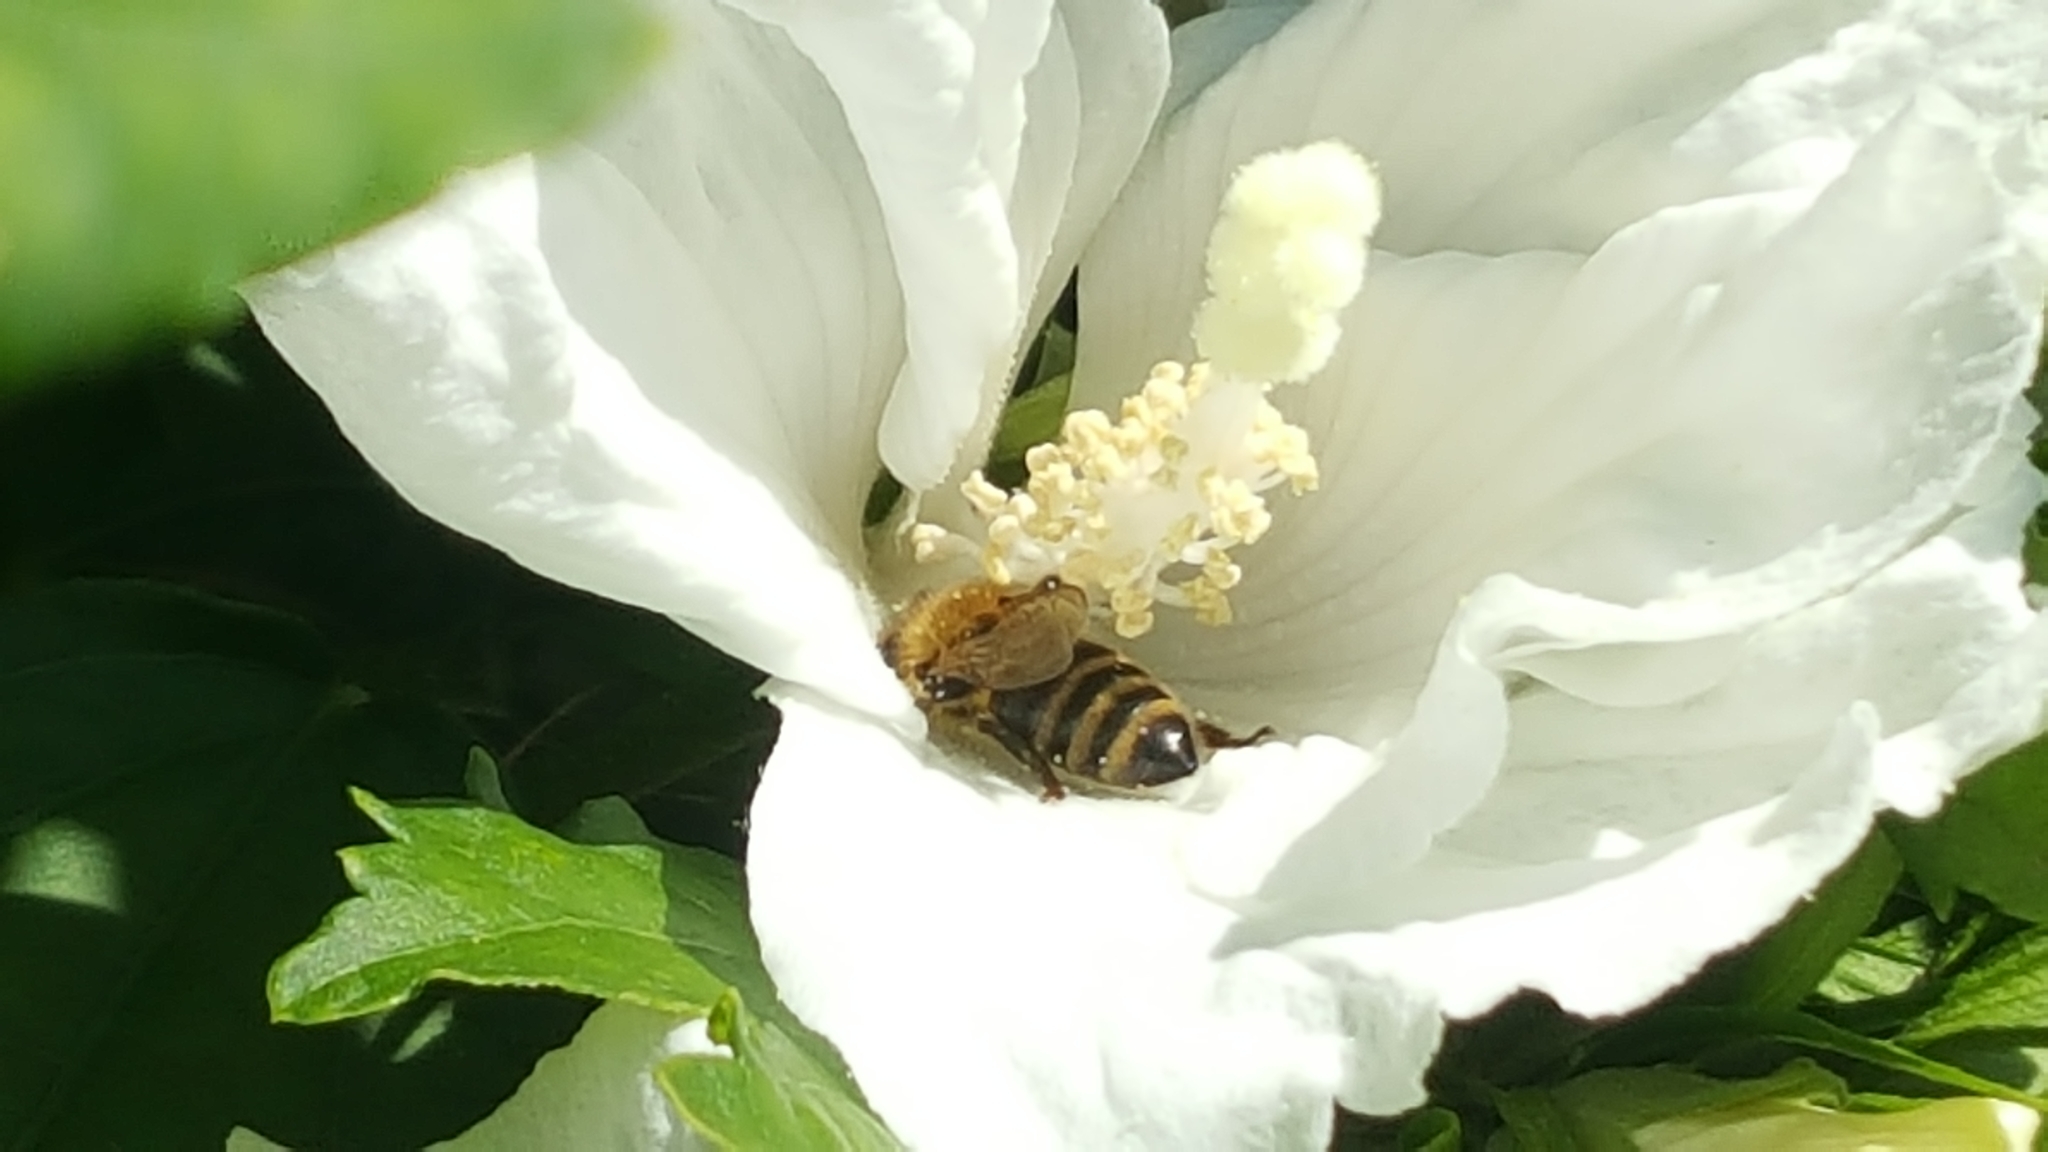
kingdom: Animalia
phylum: Arthropoda
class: Insecta
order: Hymenoptera
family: Apidae
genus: Apis
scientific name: Apis mellifera
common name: Honey bee
